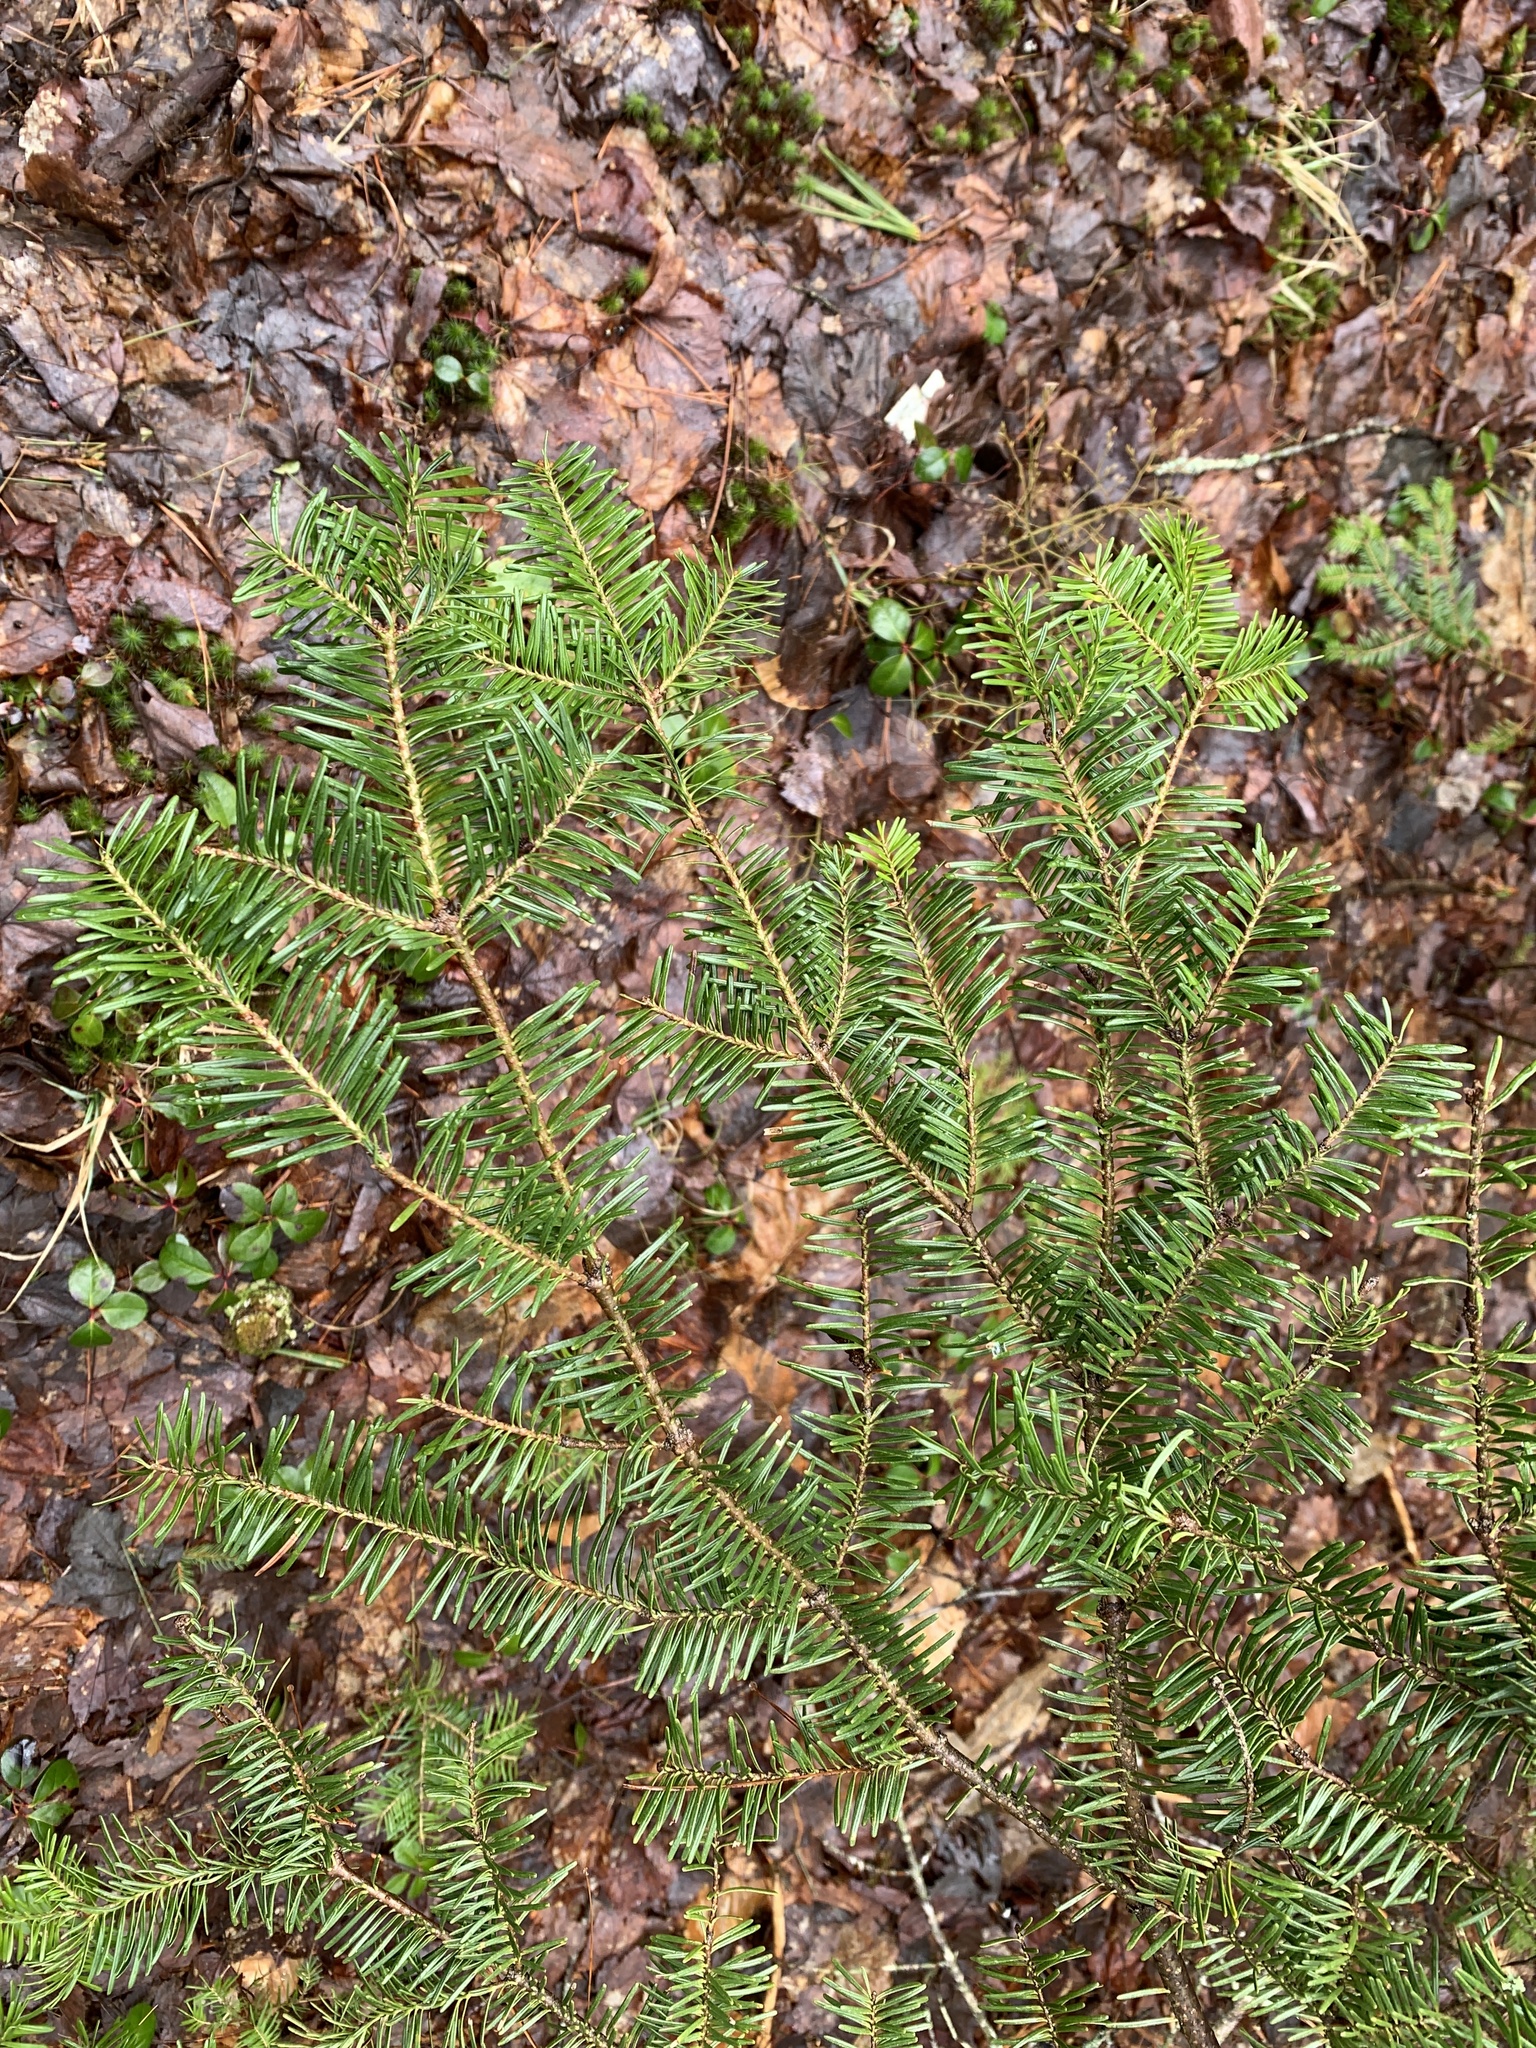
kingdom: Plantae
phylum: Tracheophyta
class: Pinopsida
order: Pinales
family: Pinaceae
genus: Abies
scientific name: Abies balsamea
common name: Balsam fir
